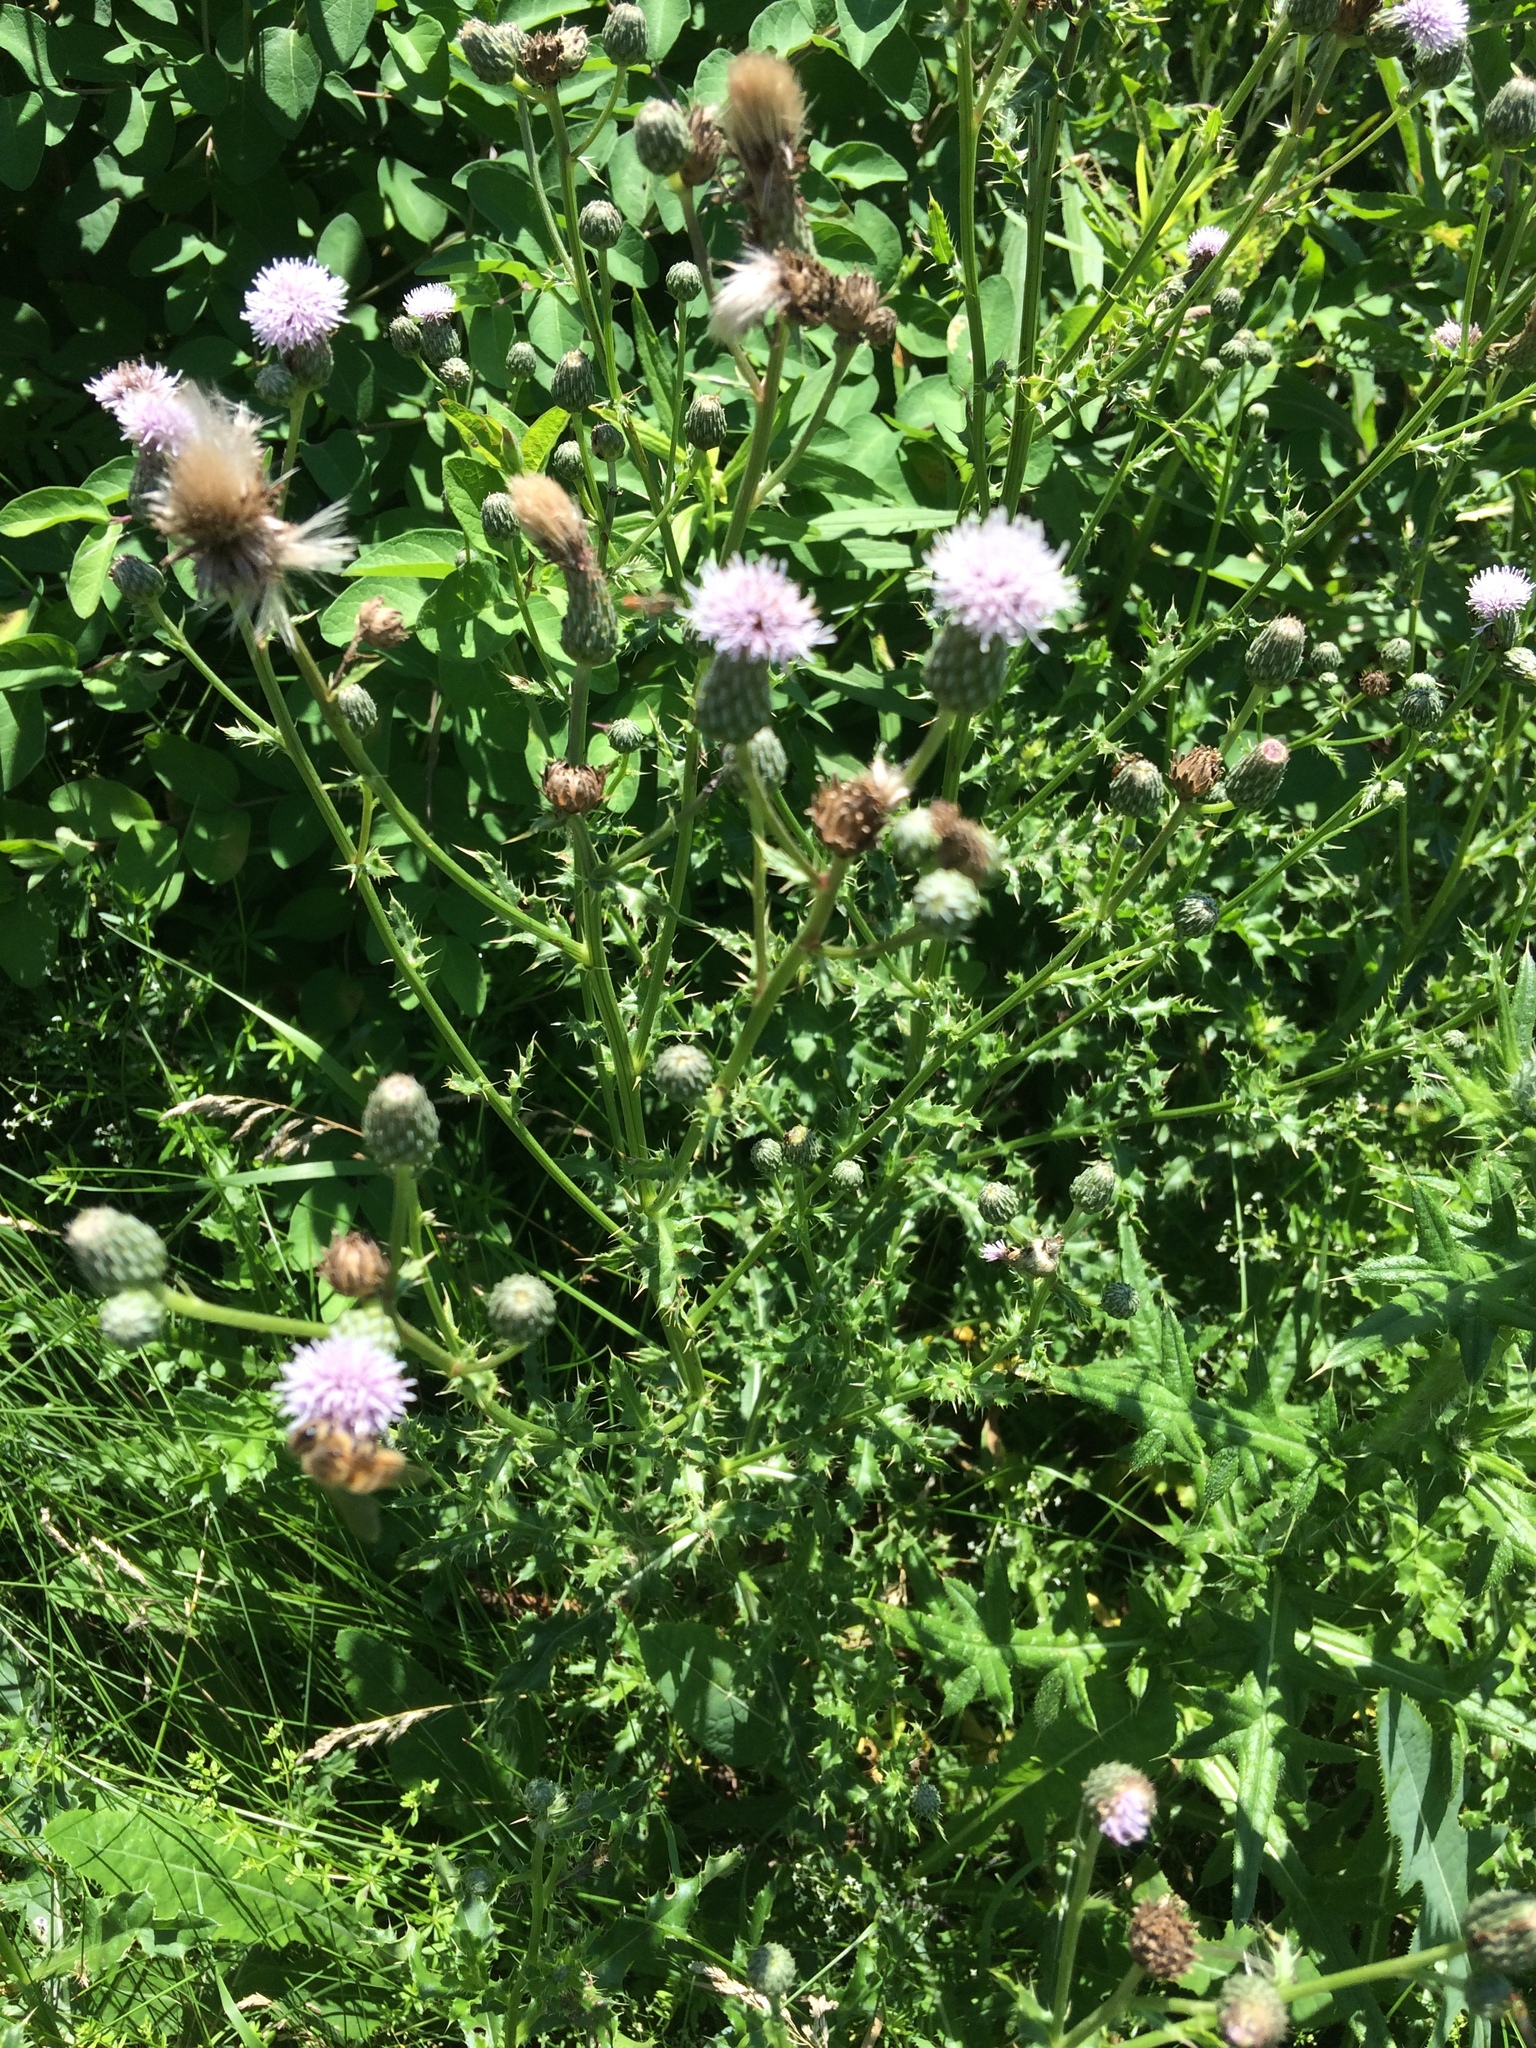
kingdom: Plantae
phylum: Tracheophyta
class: Magnoliopsida
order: Asterales
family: Asteraceae
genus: Cirsium
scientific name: Cirsium arvense
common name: Creeping thistle
